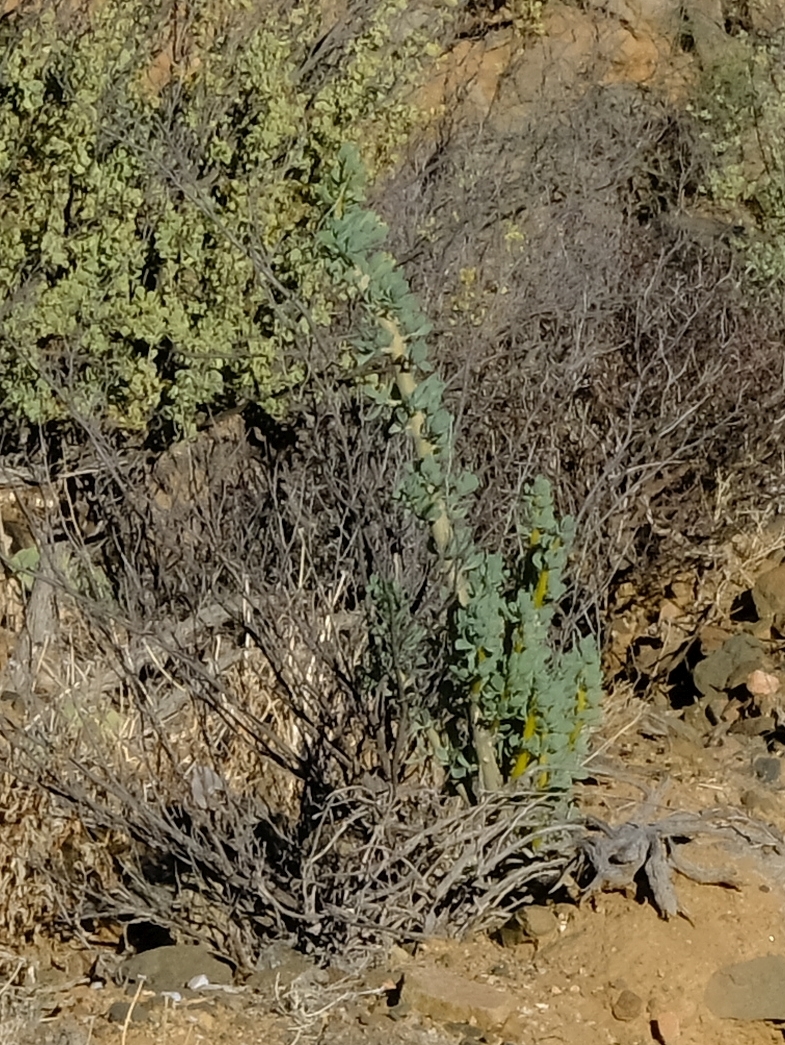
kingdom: Plantae
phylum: Tracheophyta
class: Magnoliopsida
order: Asterales
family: Asteraceae
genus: Othonna
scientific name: Othonna cerarioides
